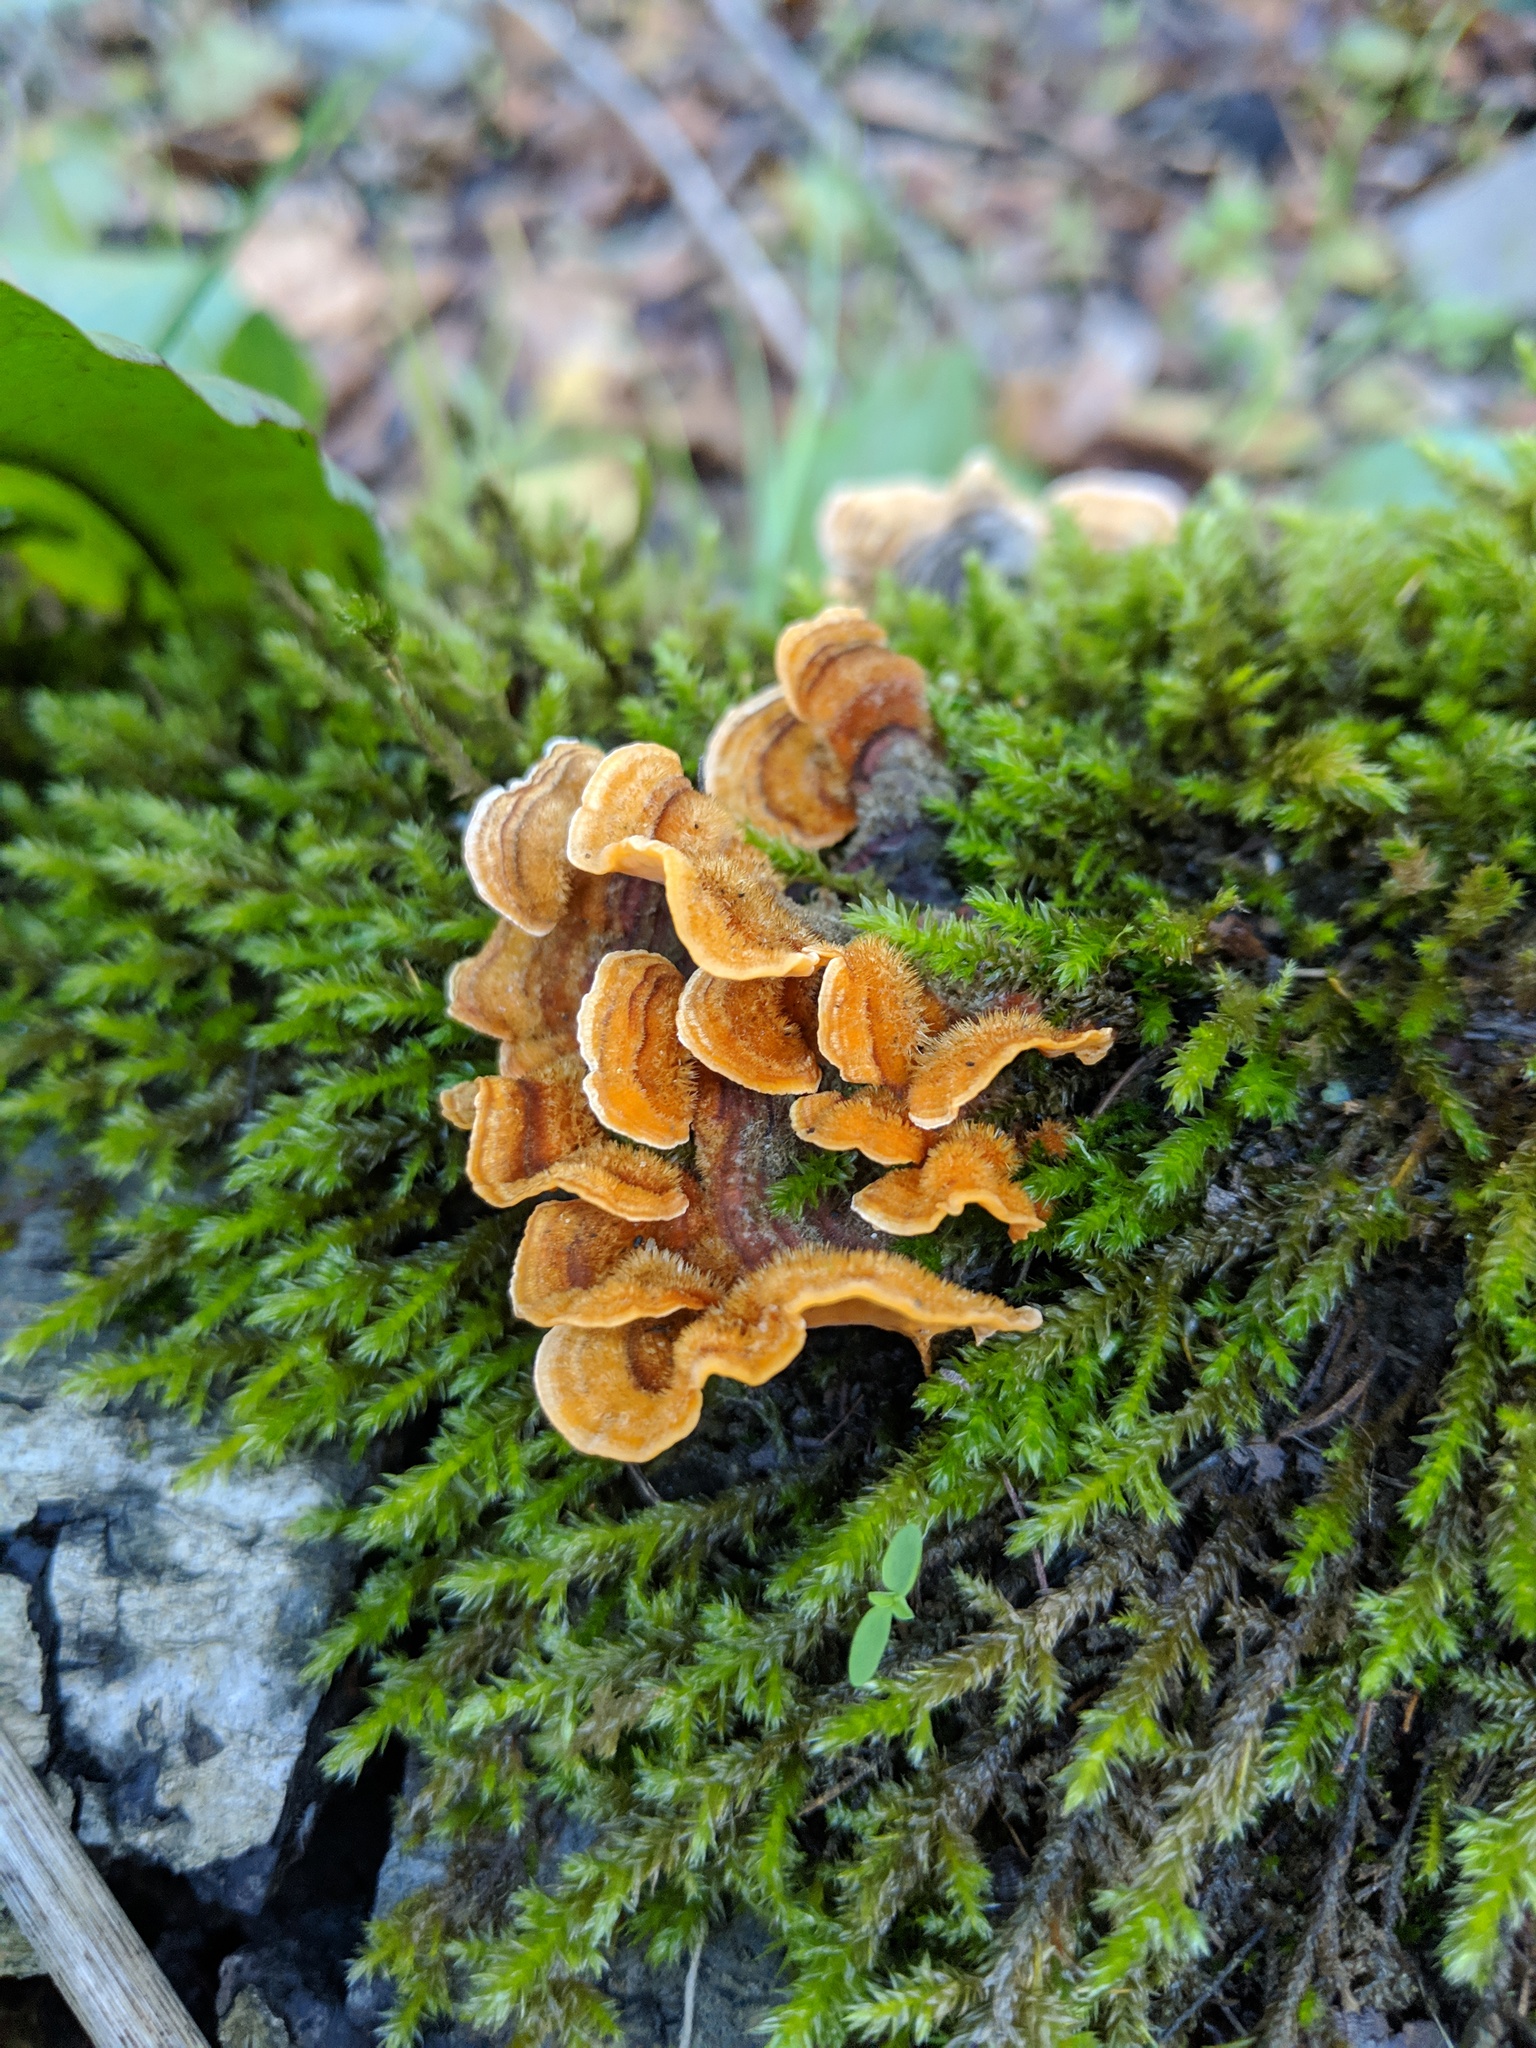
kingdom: Fungi
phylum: Basidiomycota
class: Agaricomycetes
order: Russulales
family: Stereaceae
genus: Stereum
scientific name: Stereum hirsutum
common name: Hairy curtain crust
